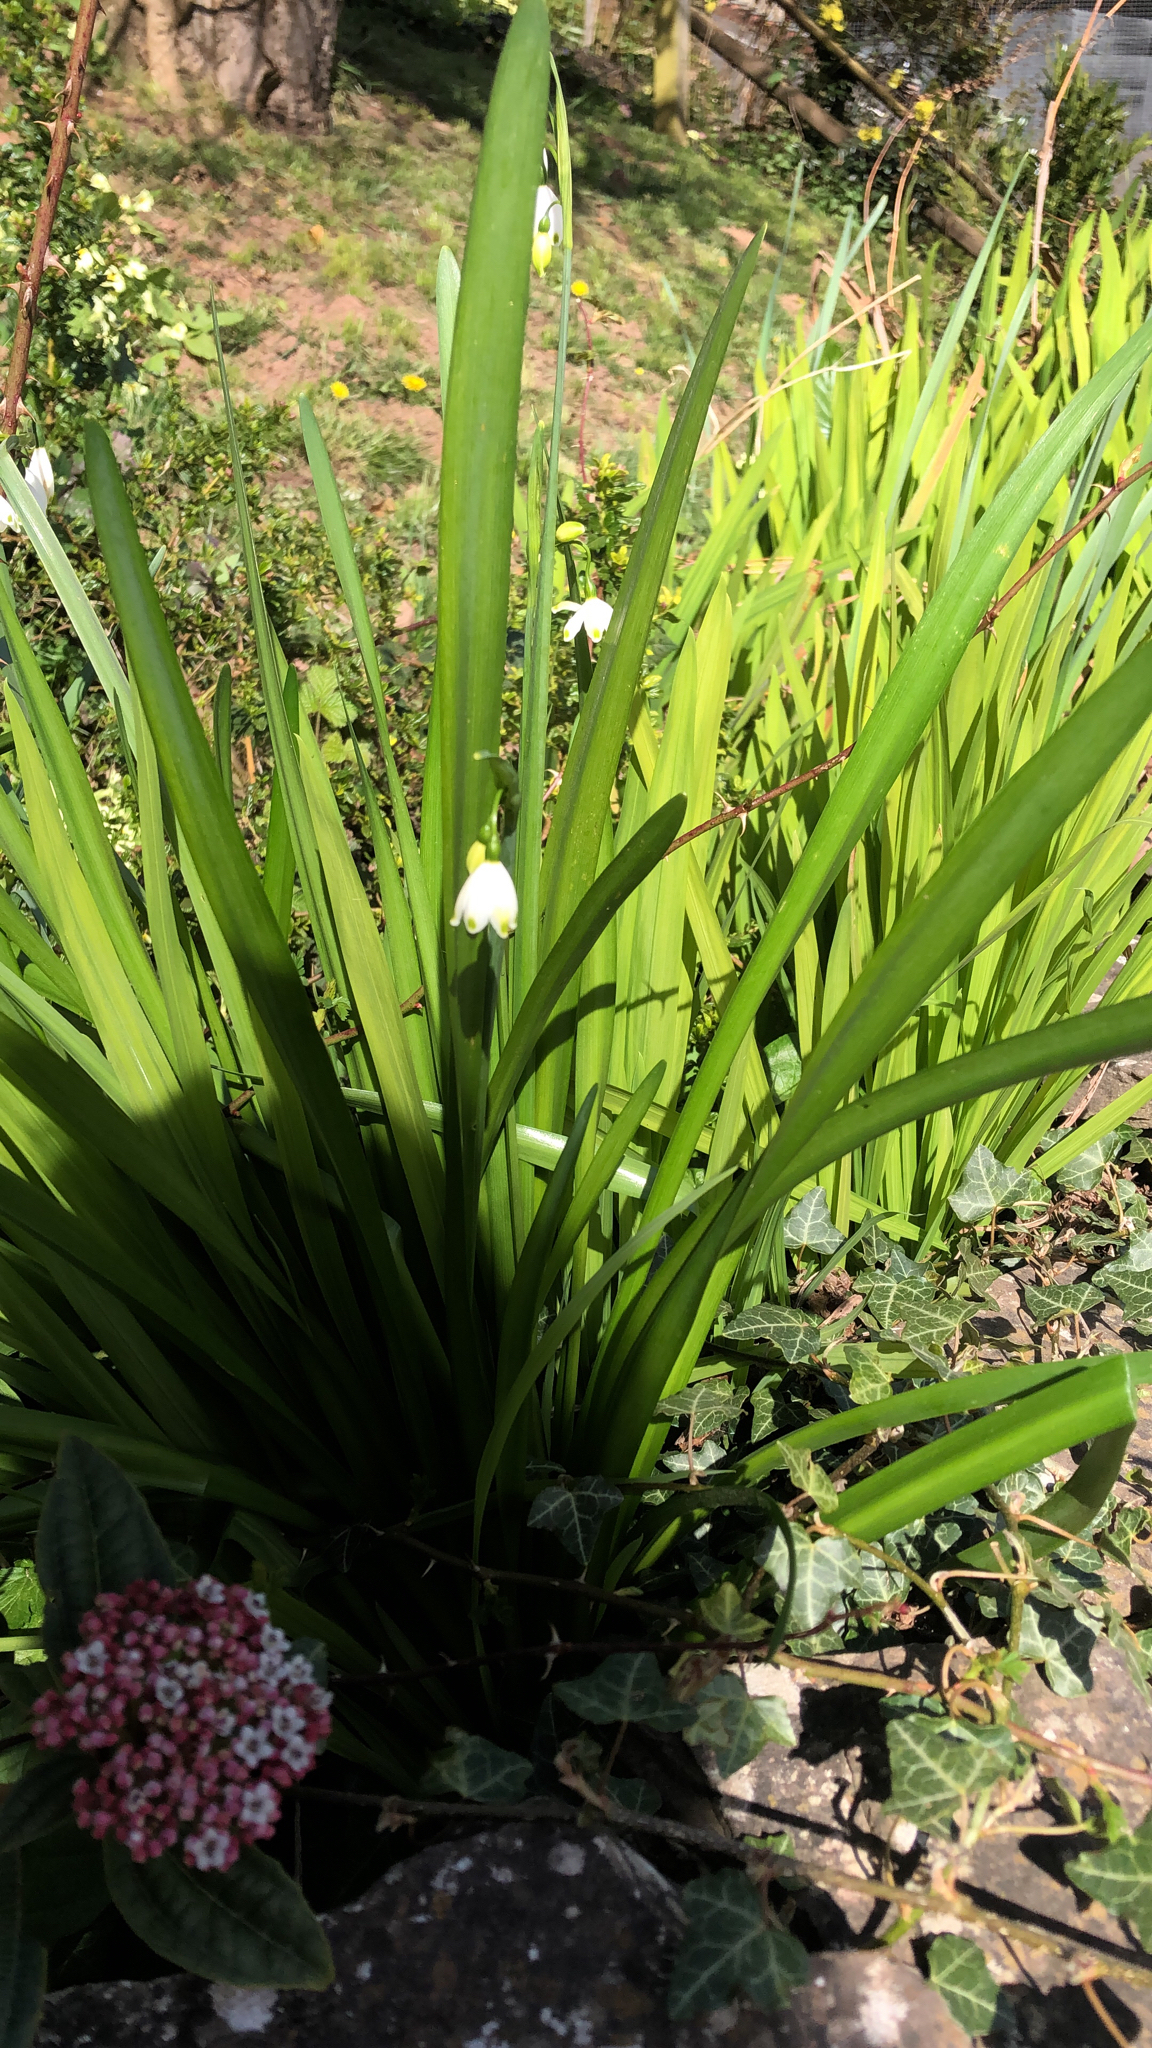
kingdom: Plantae
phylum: Tracheophyta
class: Liliopsida
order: Asparagales
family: Amaryllidaceae
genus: Leucojum
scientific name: Leucojum aestivum
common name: Summer snowflake
